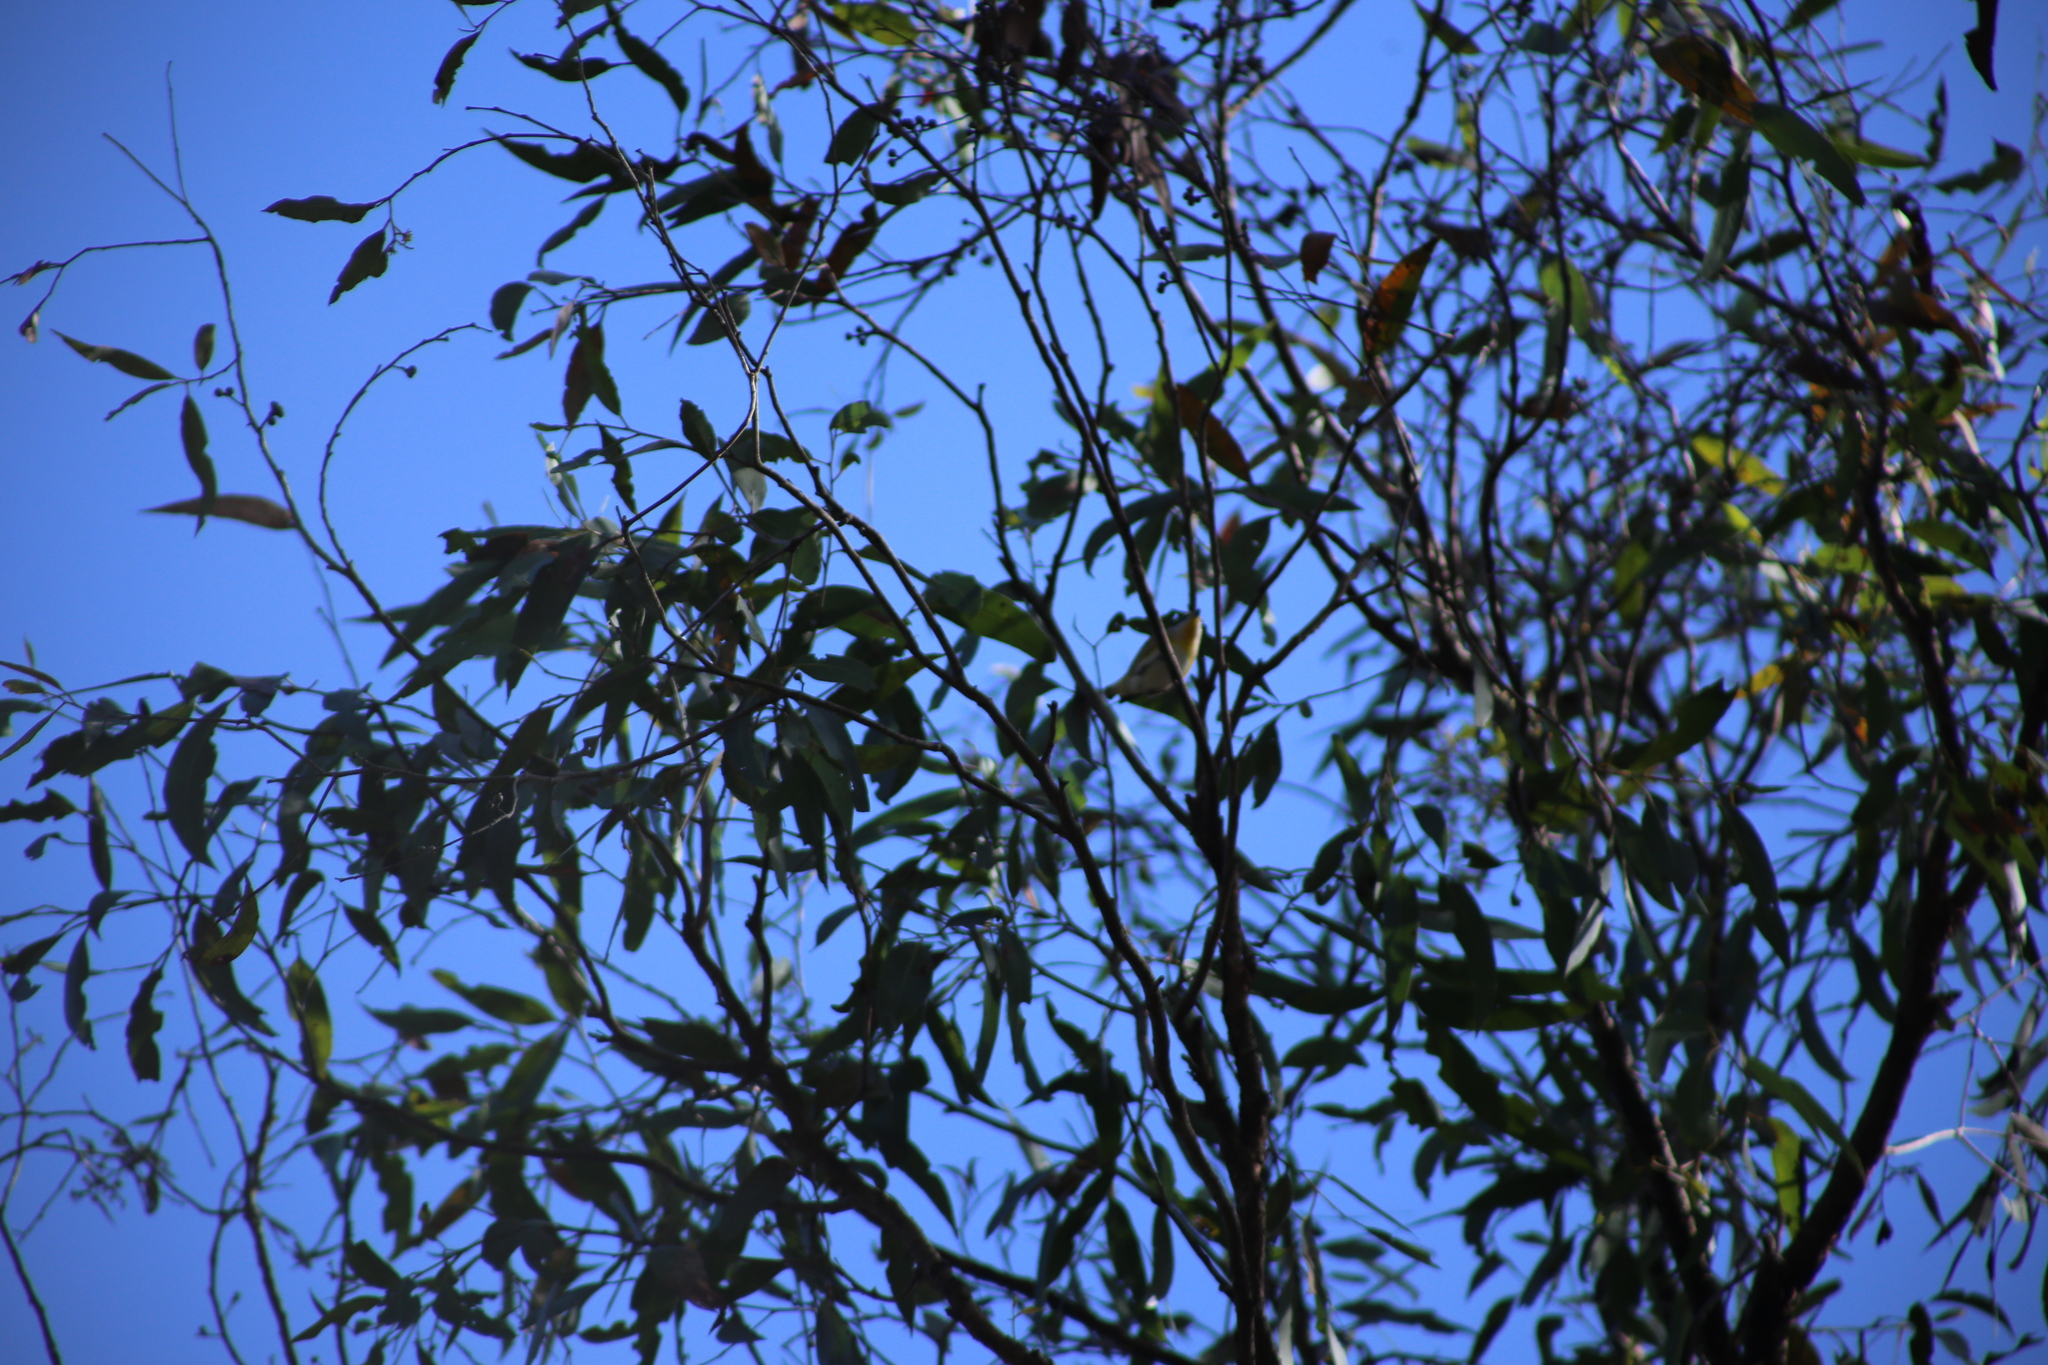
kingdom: Animalia
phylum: Chordata
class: Aves
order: Passeriformes
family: Pardalotidae
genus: Pardalotus
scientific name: Pardalotus striatus
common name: Striated pardalote
